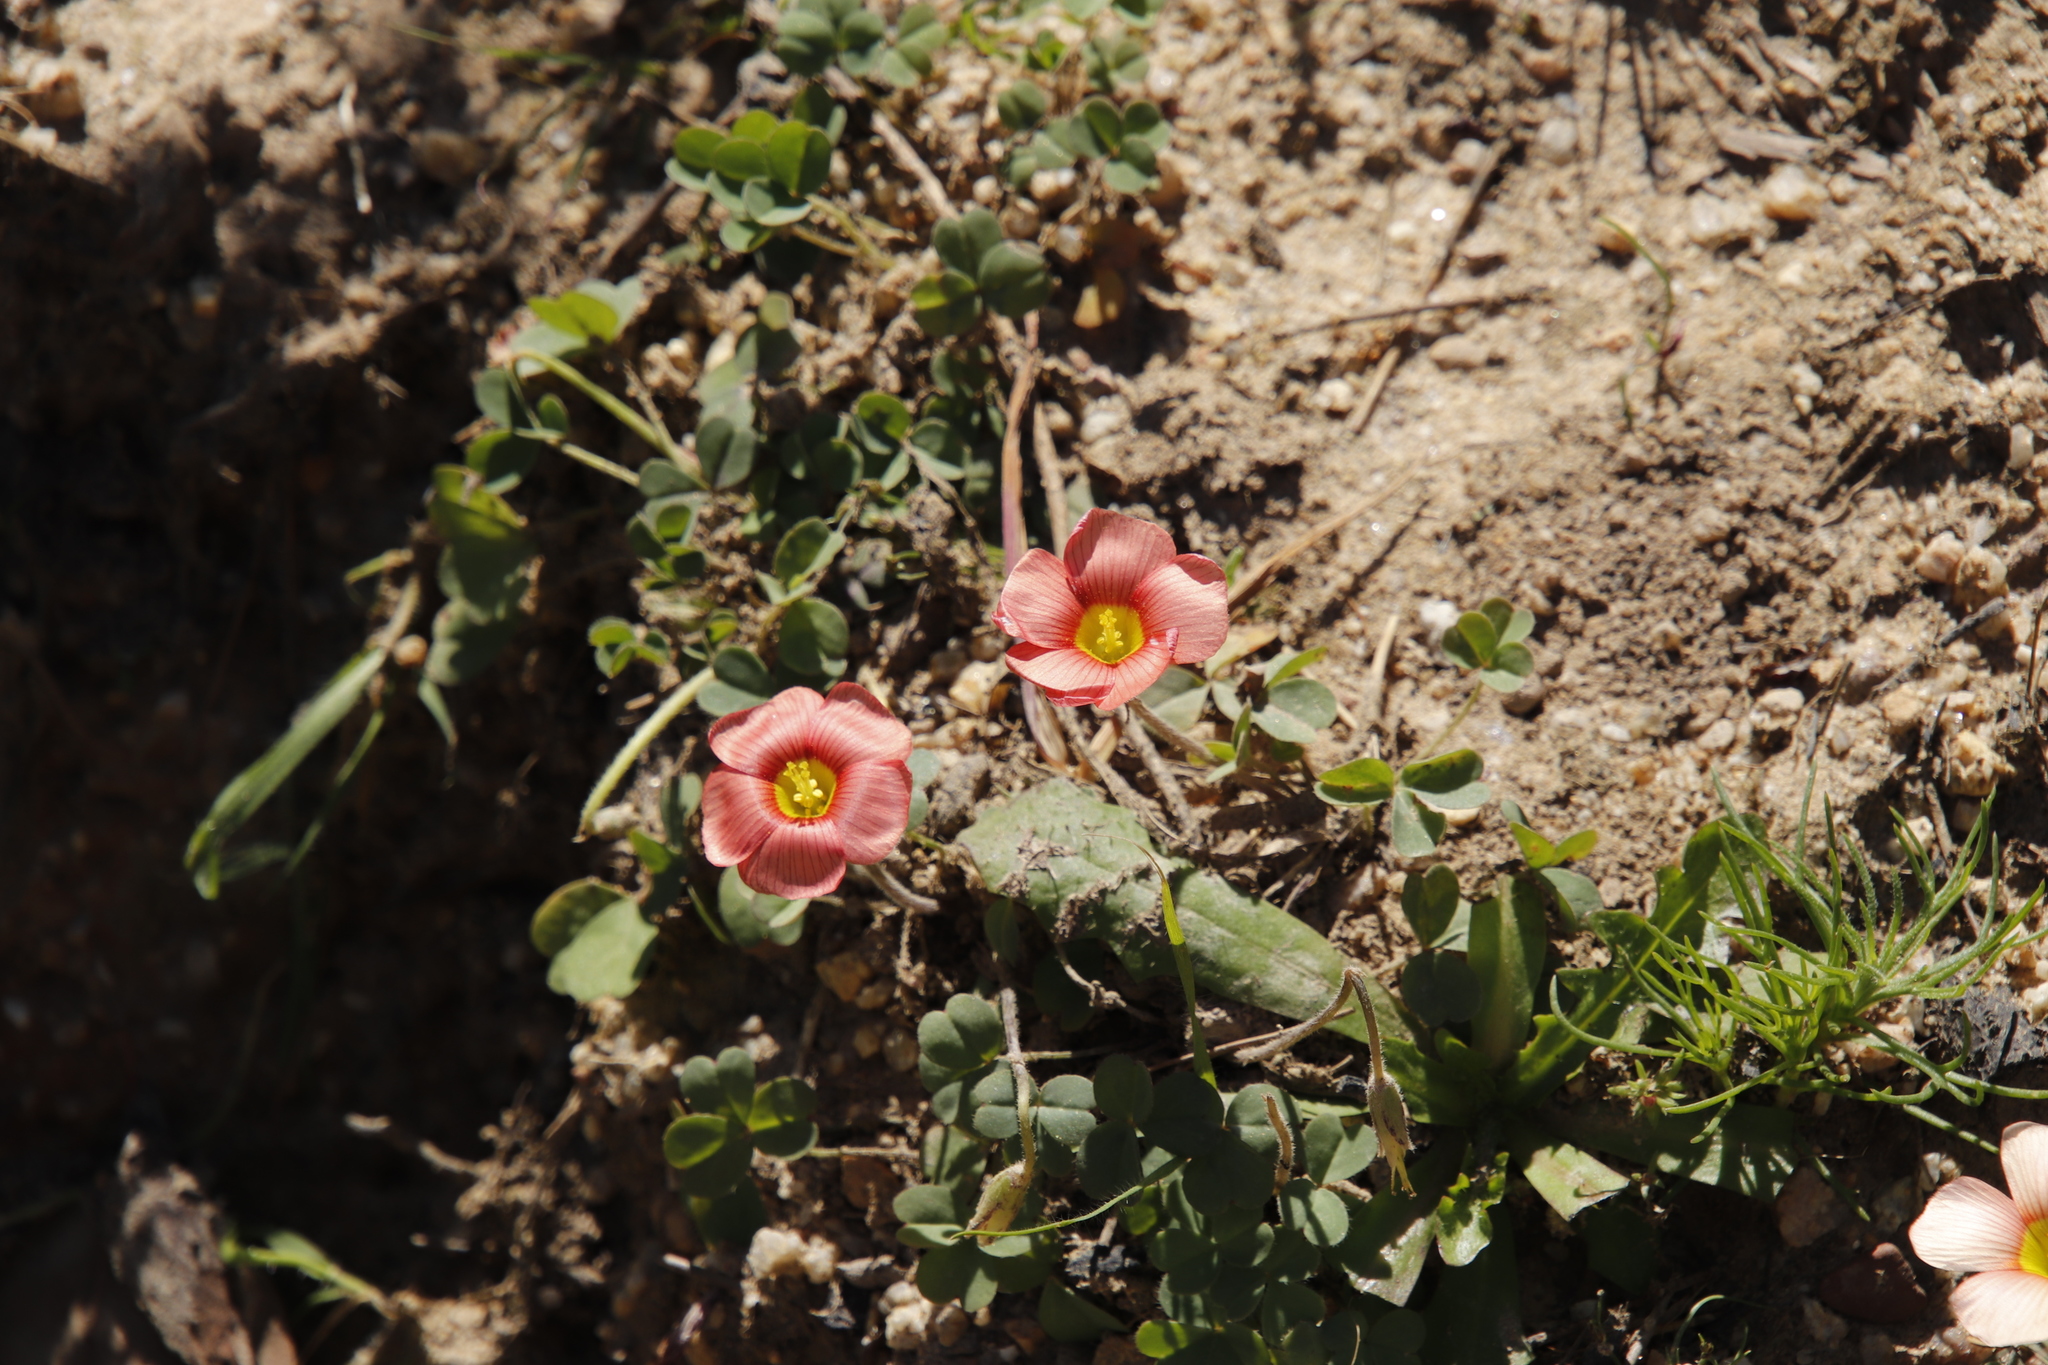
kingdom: Plantae
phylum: Tracheophyta
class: Magnoliopsida
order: Oxalidales
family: Oxalidaceae
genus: Oxalis
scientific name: Oxalis obtusa
